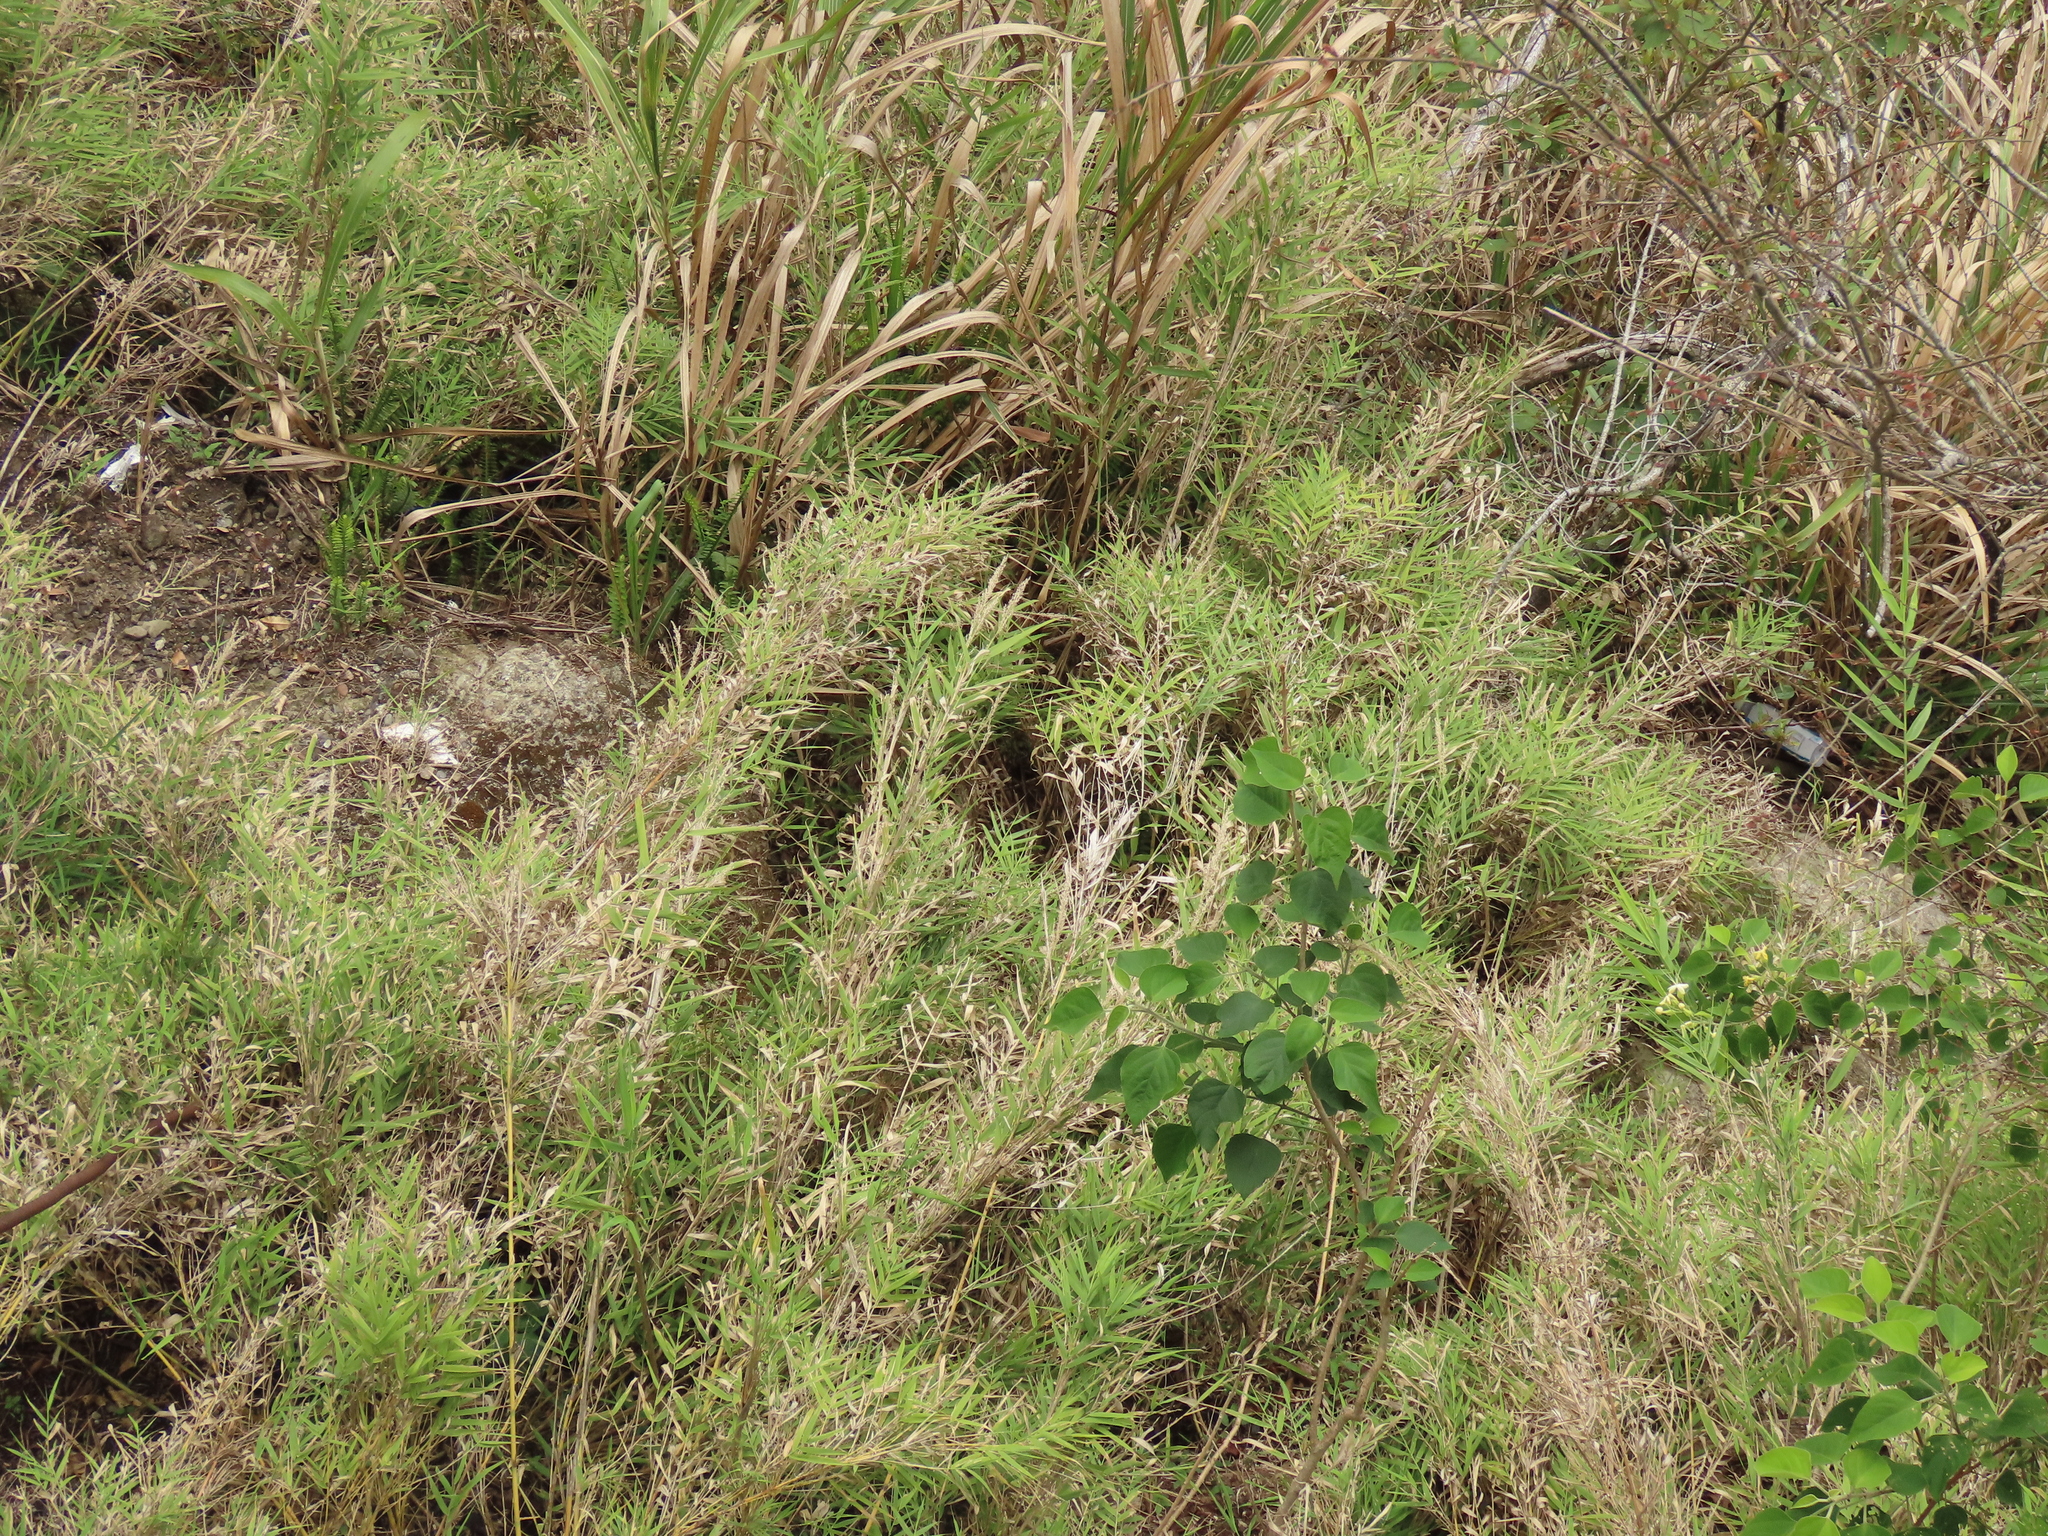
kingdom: Plantae
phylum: Tracheophyta
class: Liliopsida
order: Poales
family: Poaceae
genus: Arundo
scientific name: Arundo formosana
